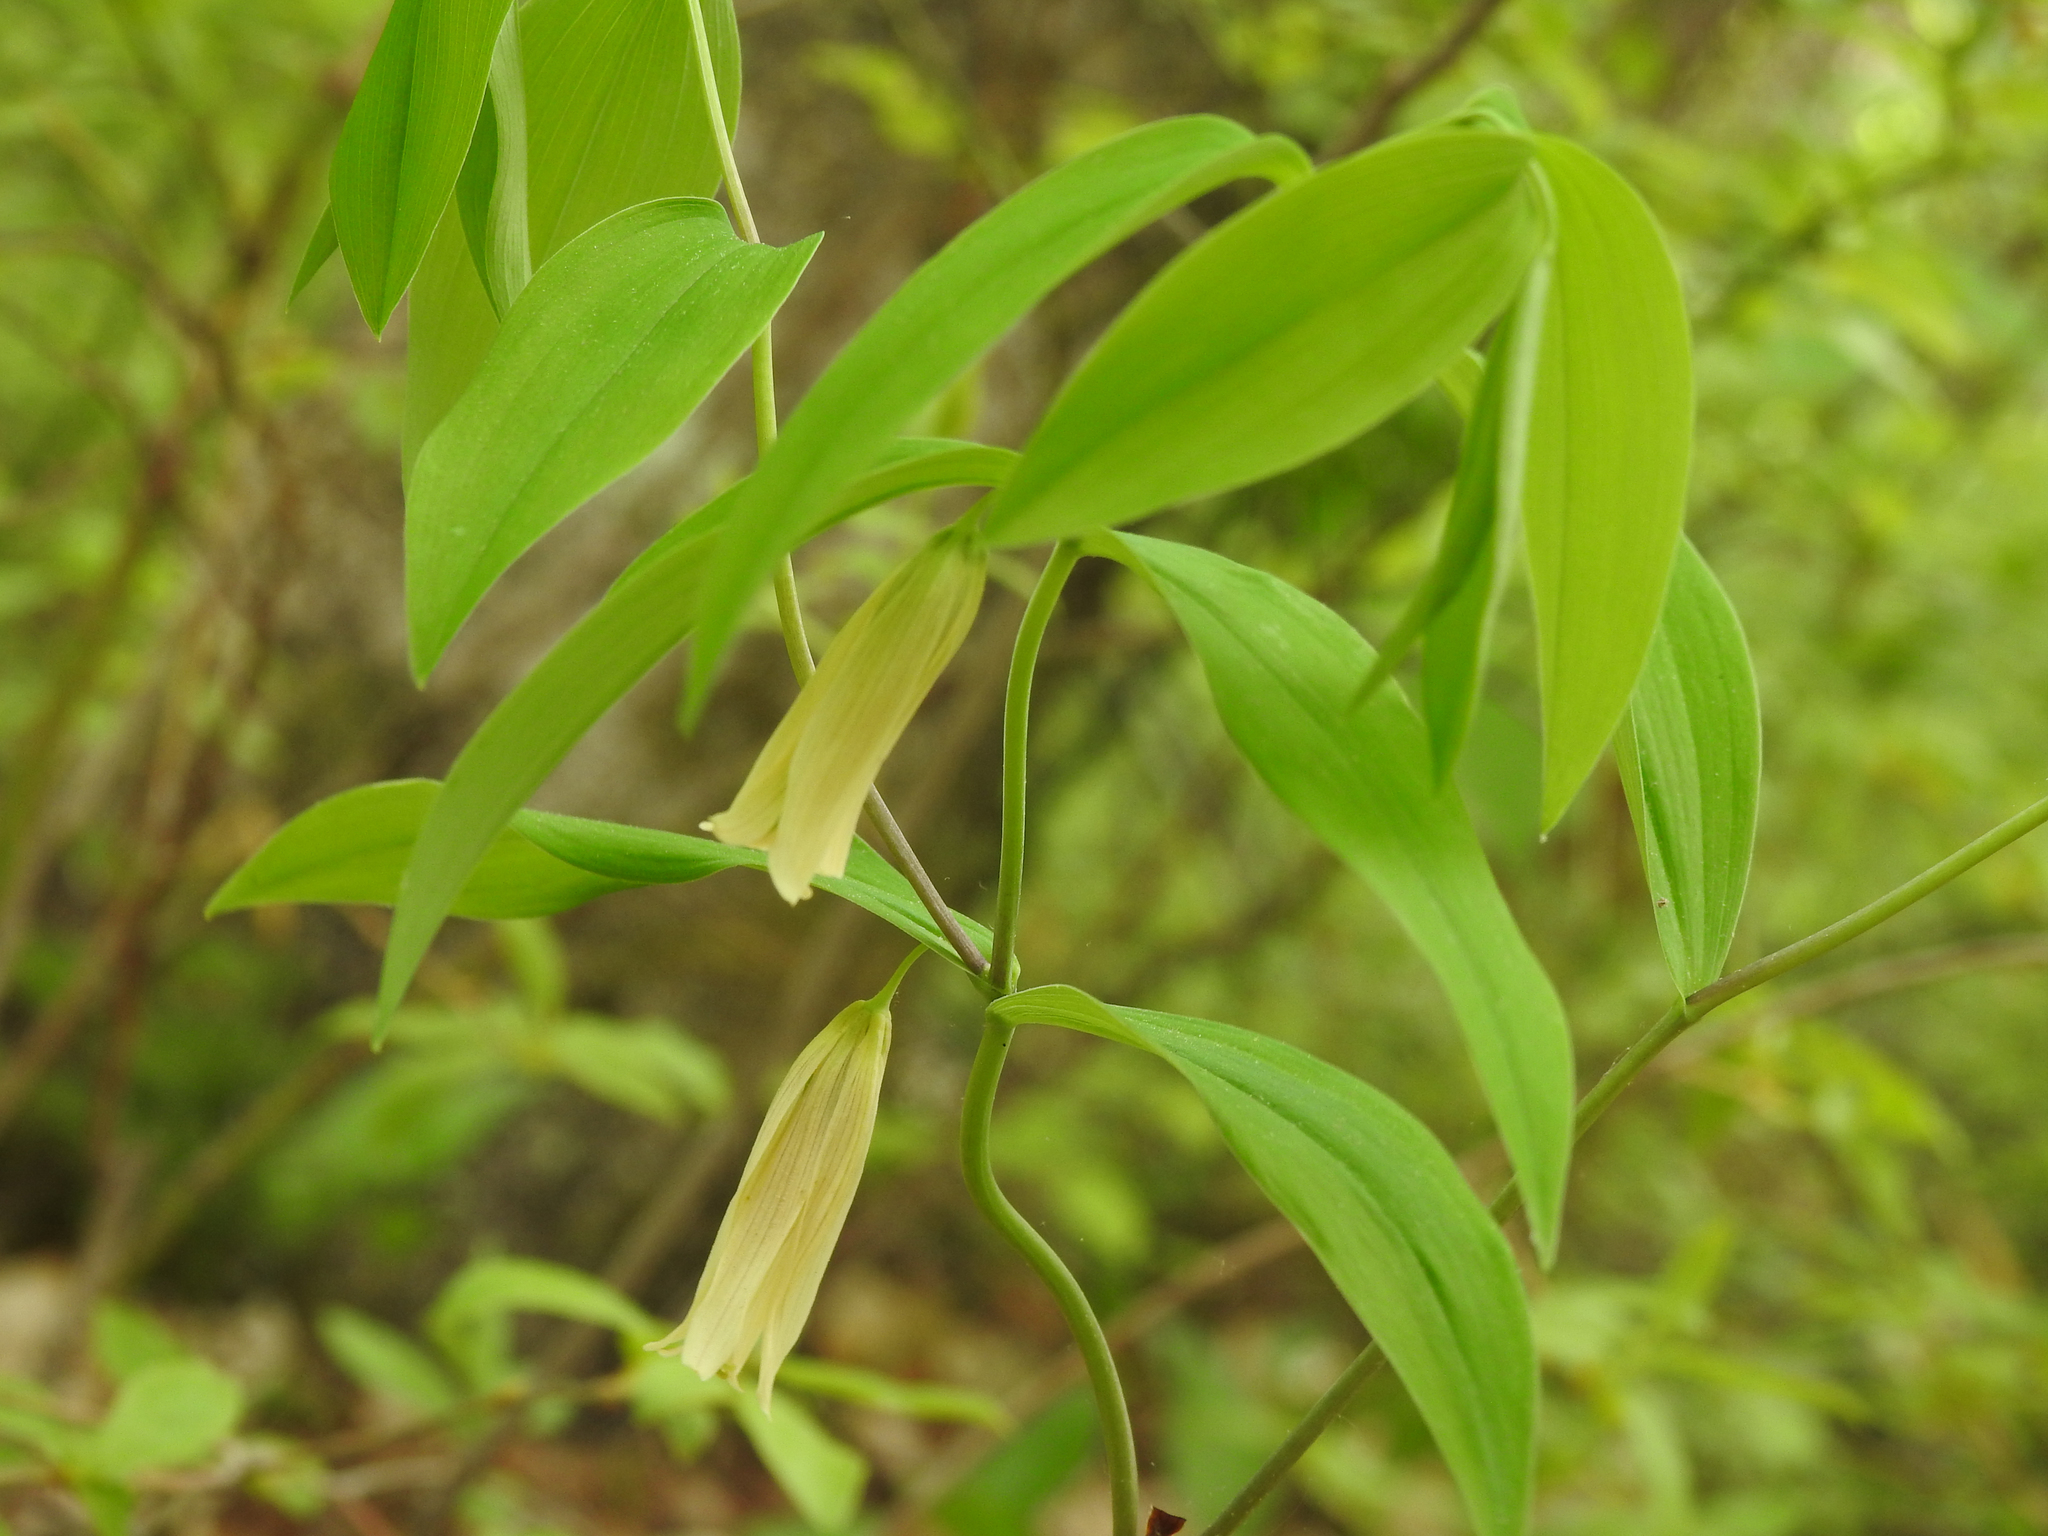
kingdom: Plantae
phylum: Tracheophyta
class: Liliopsida
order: Liliales
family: Colchicaceae
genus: Uvularia
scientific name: Uvularia sessilifolia
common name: Straw-lily
